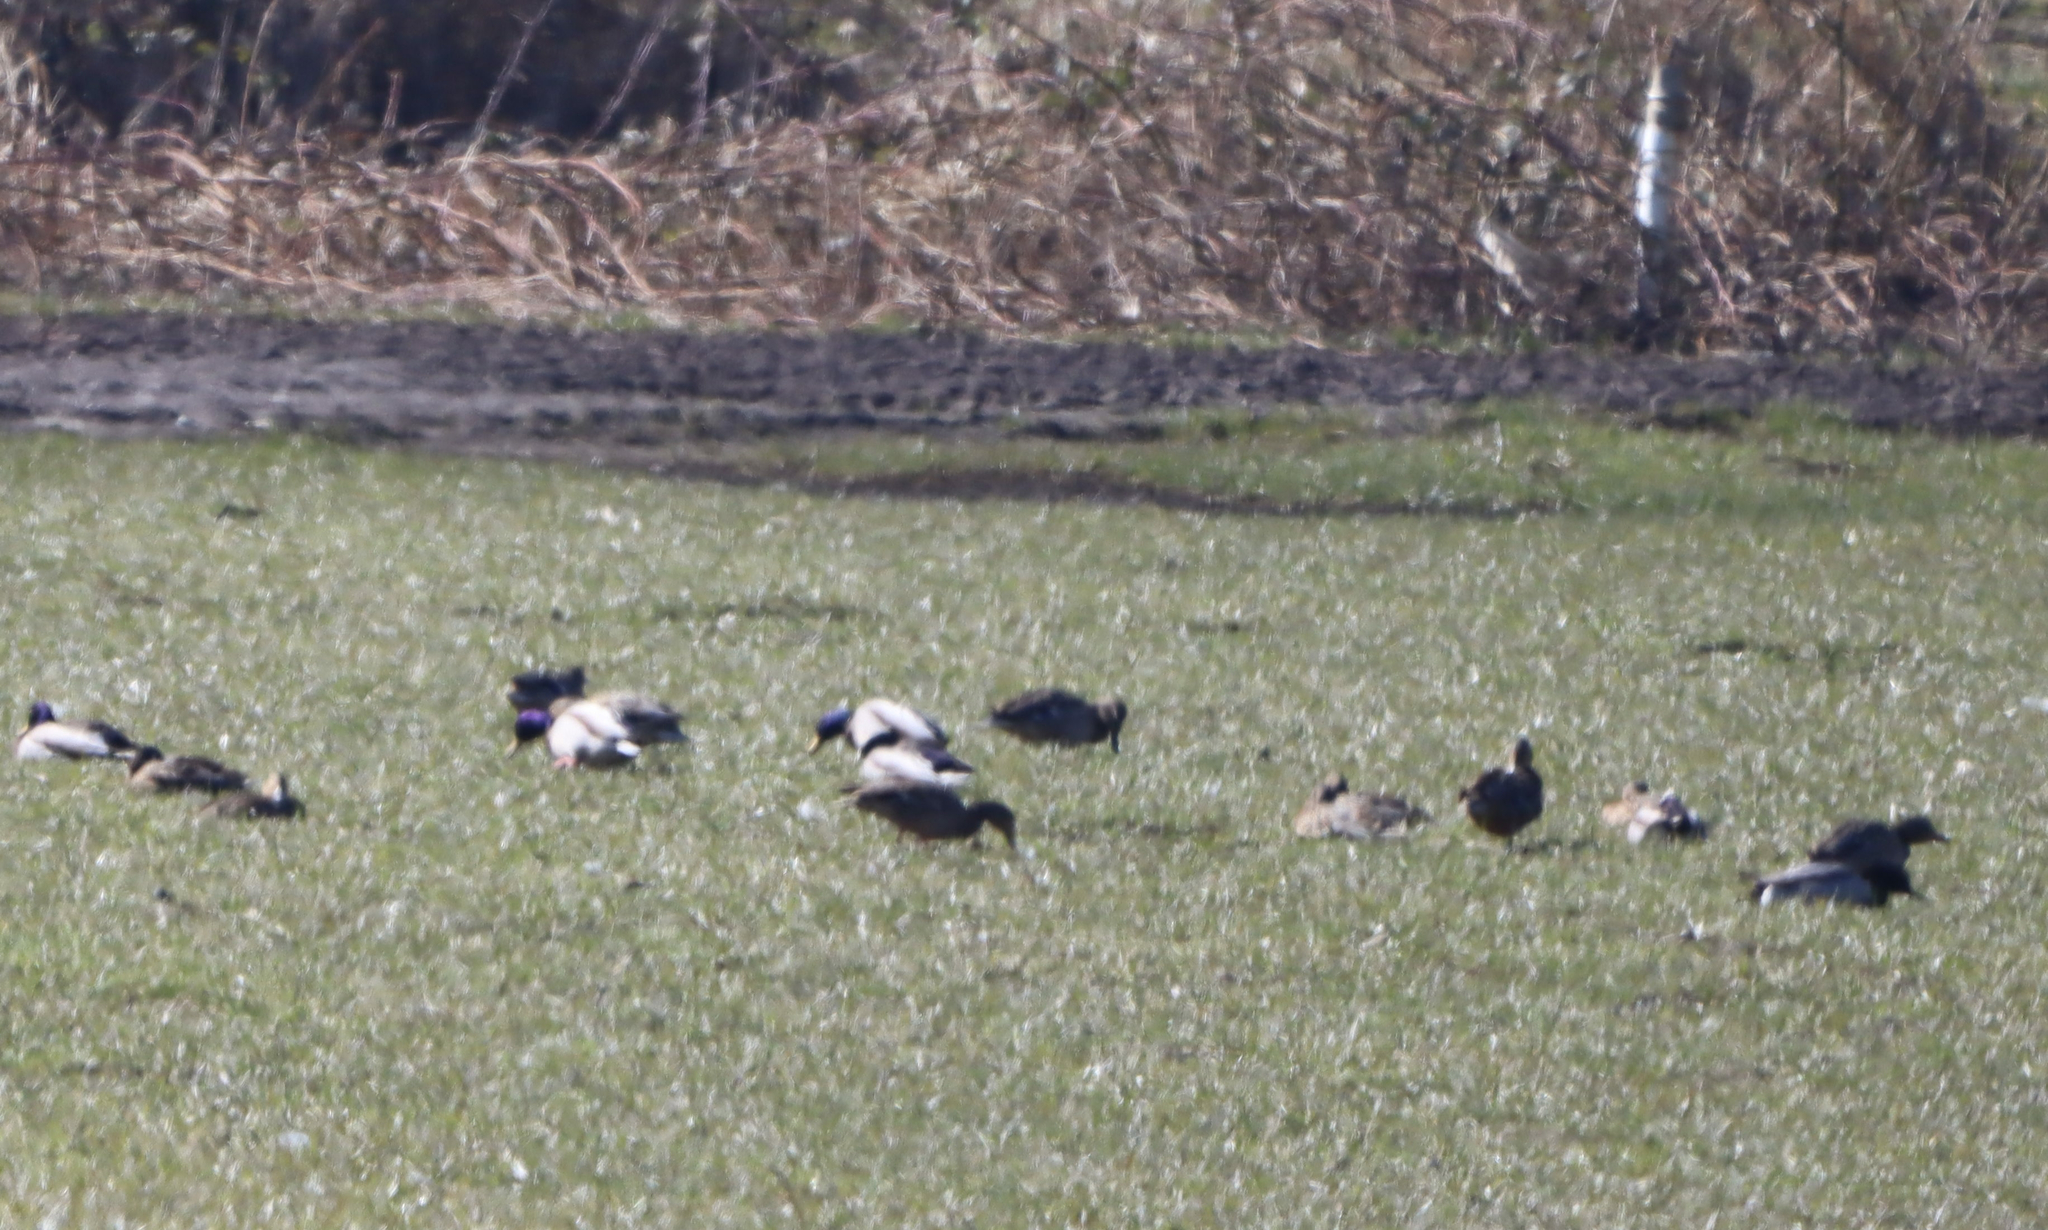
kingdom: Animalia
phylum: Chordata
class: Aves
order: Anseriformes
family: Anatidae
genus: Anas
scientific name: Anas platyrhynchos
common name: Mallard
